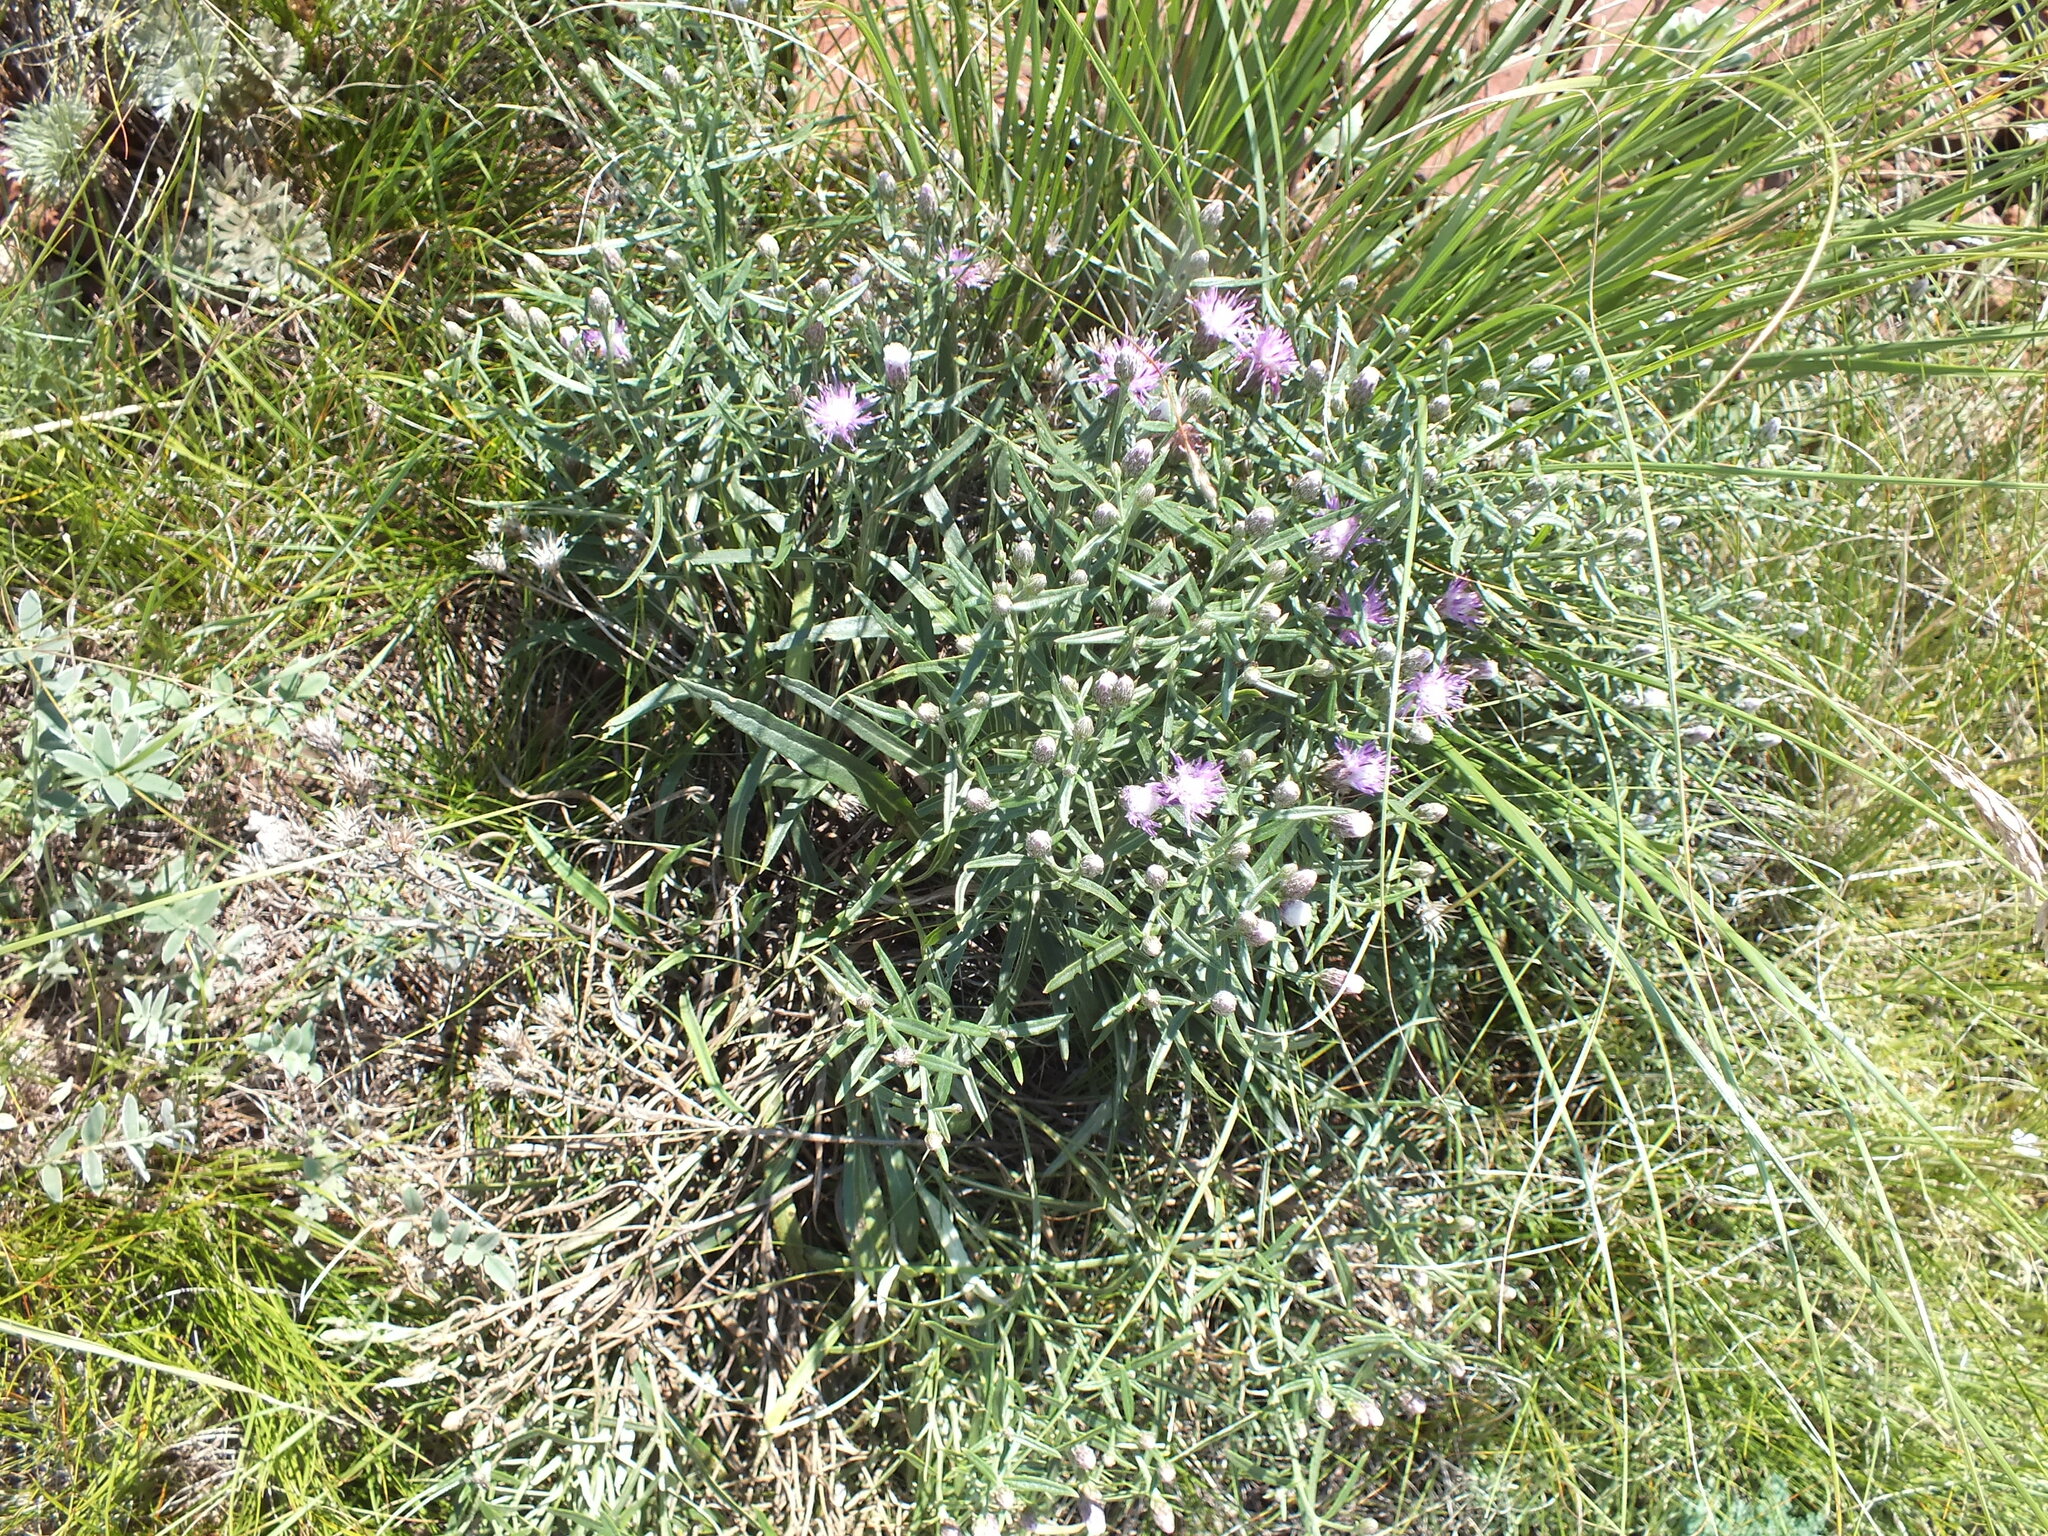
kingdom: Plantae
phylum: Tracheophyta
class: Magnoliopsida
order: Asterales
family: Asteraceae
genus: Saussurea
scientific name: Saussurea salicifolia
